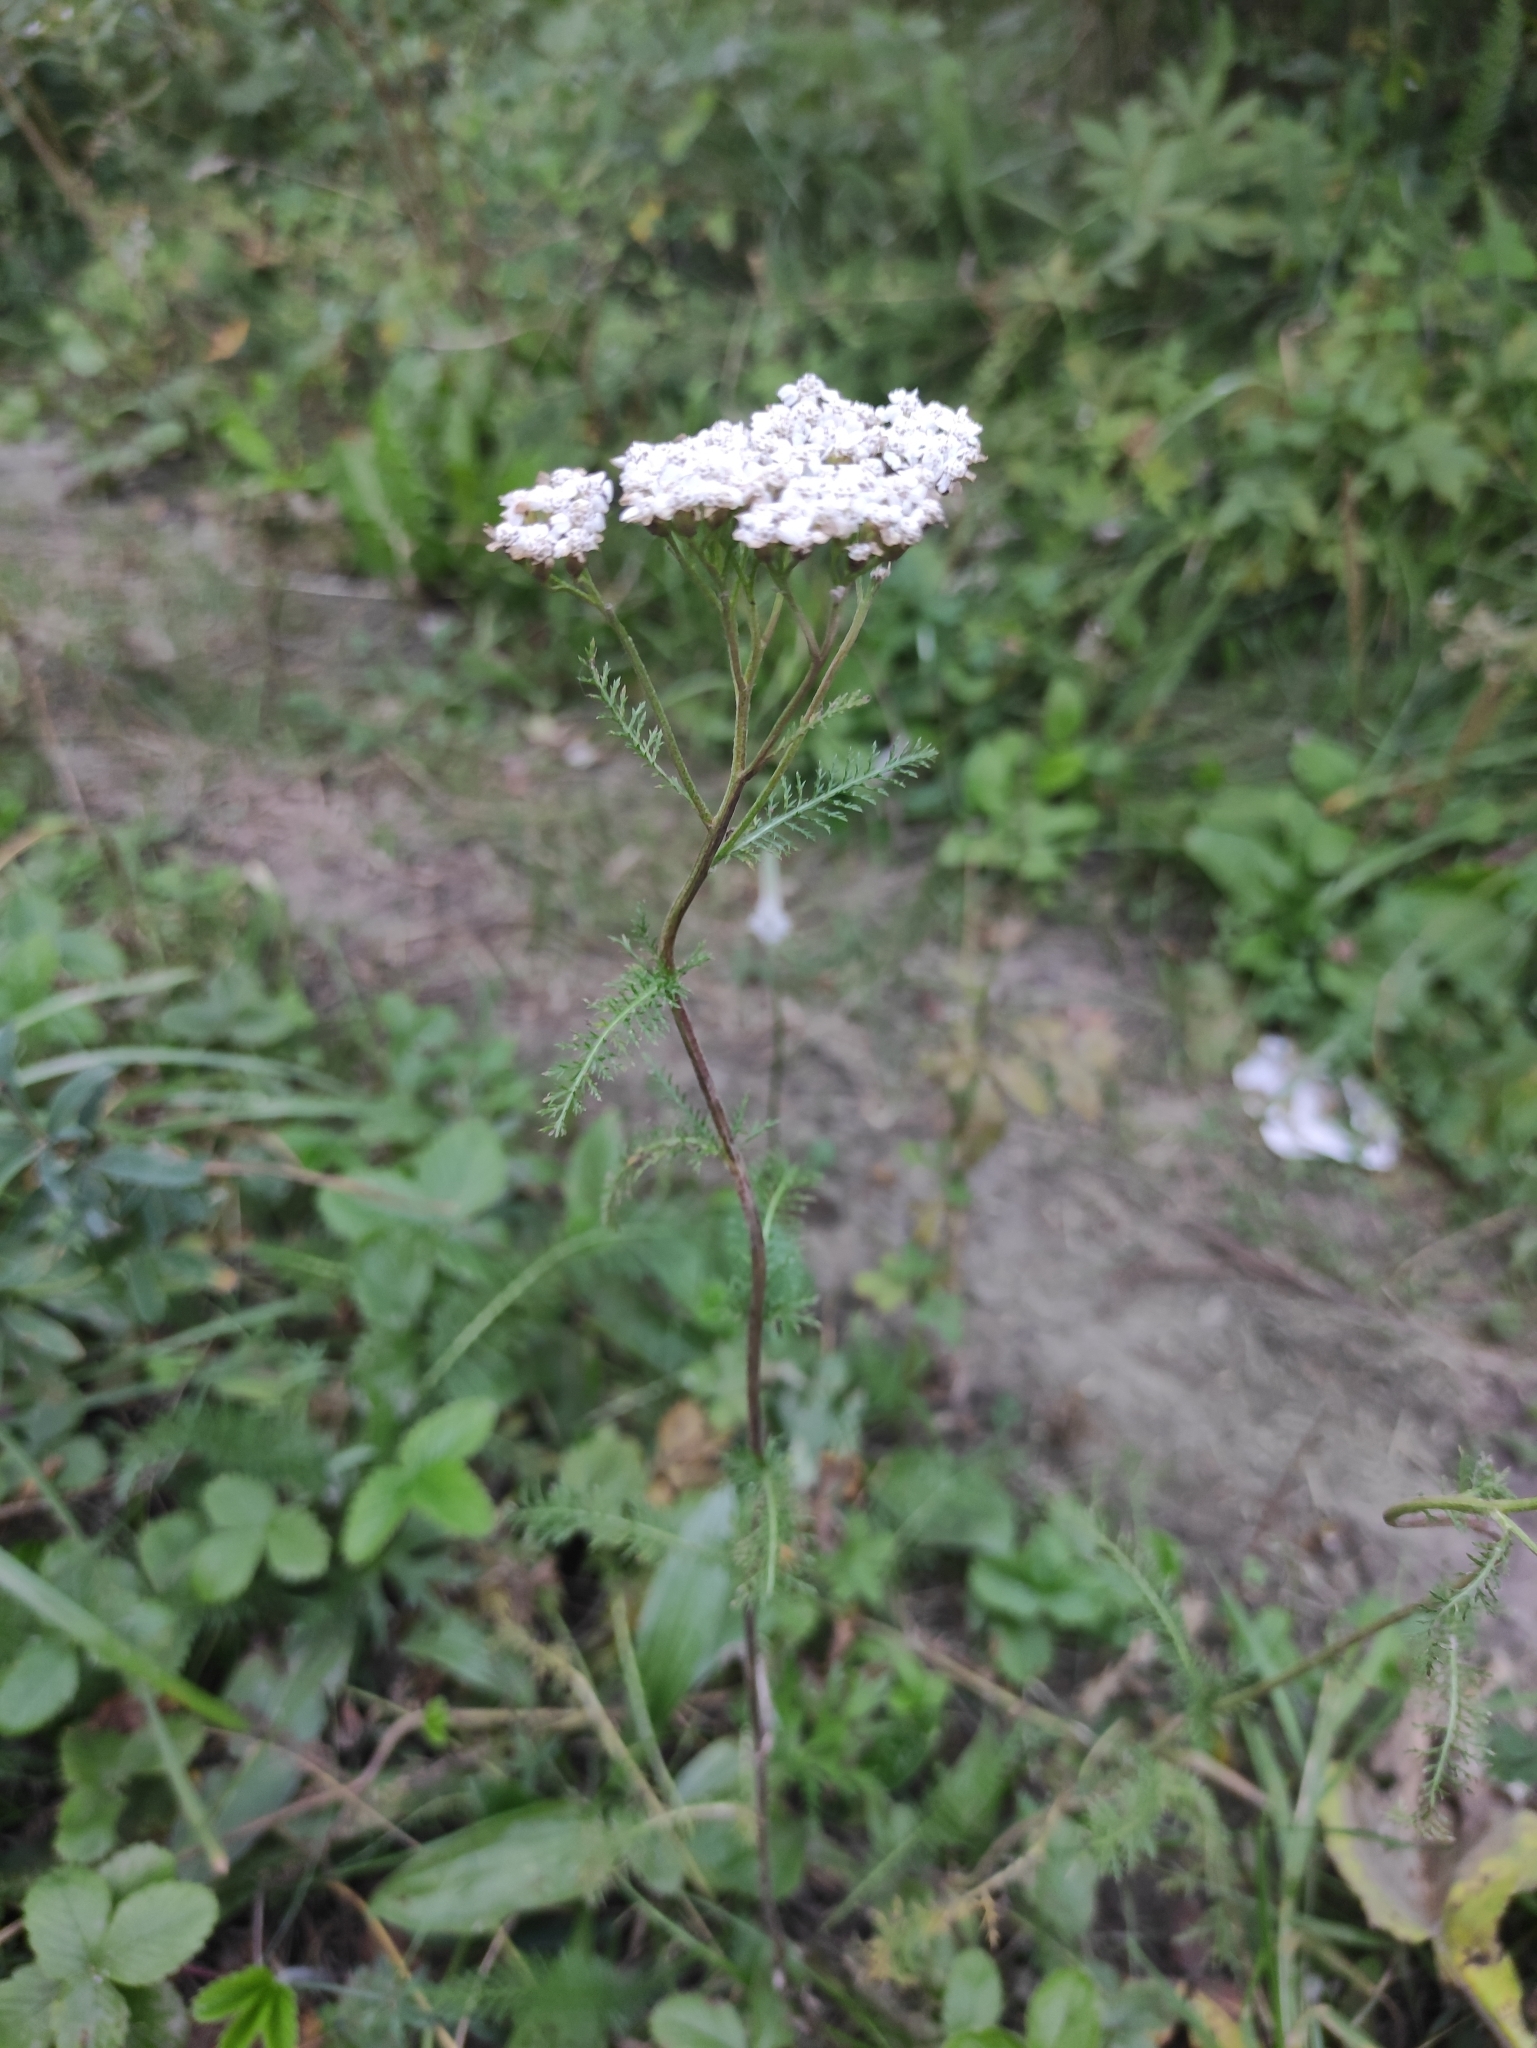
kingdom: Plantae
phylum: Tracheophyta
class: Magnoliopsida
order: Asterales
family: Asteraceae
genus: Achillea
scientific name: Achillea millefolium
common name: Yarrow
